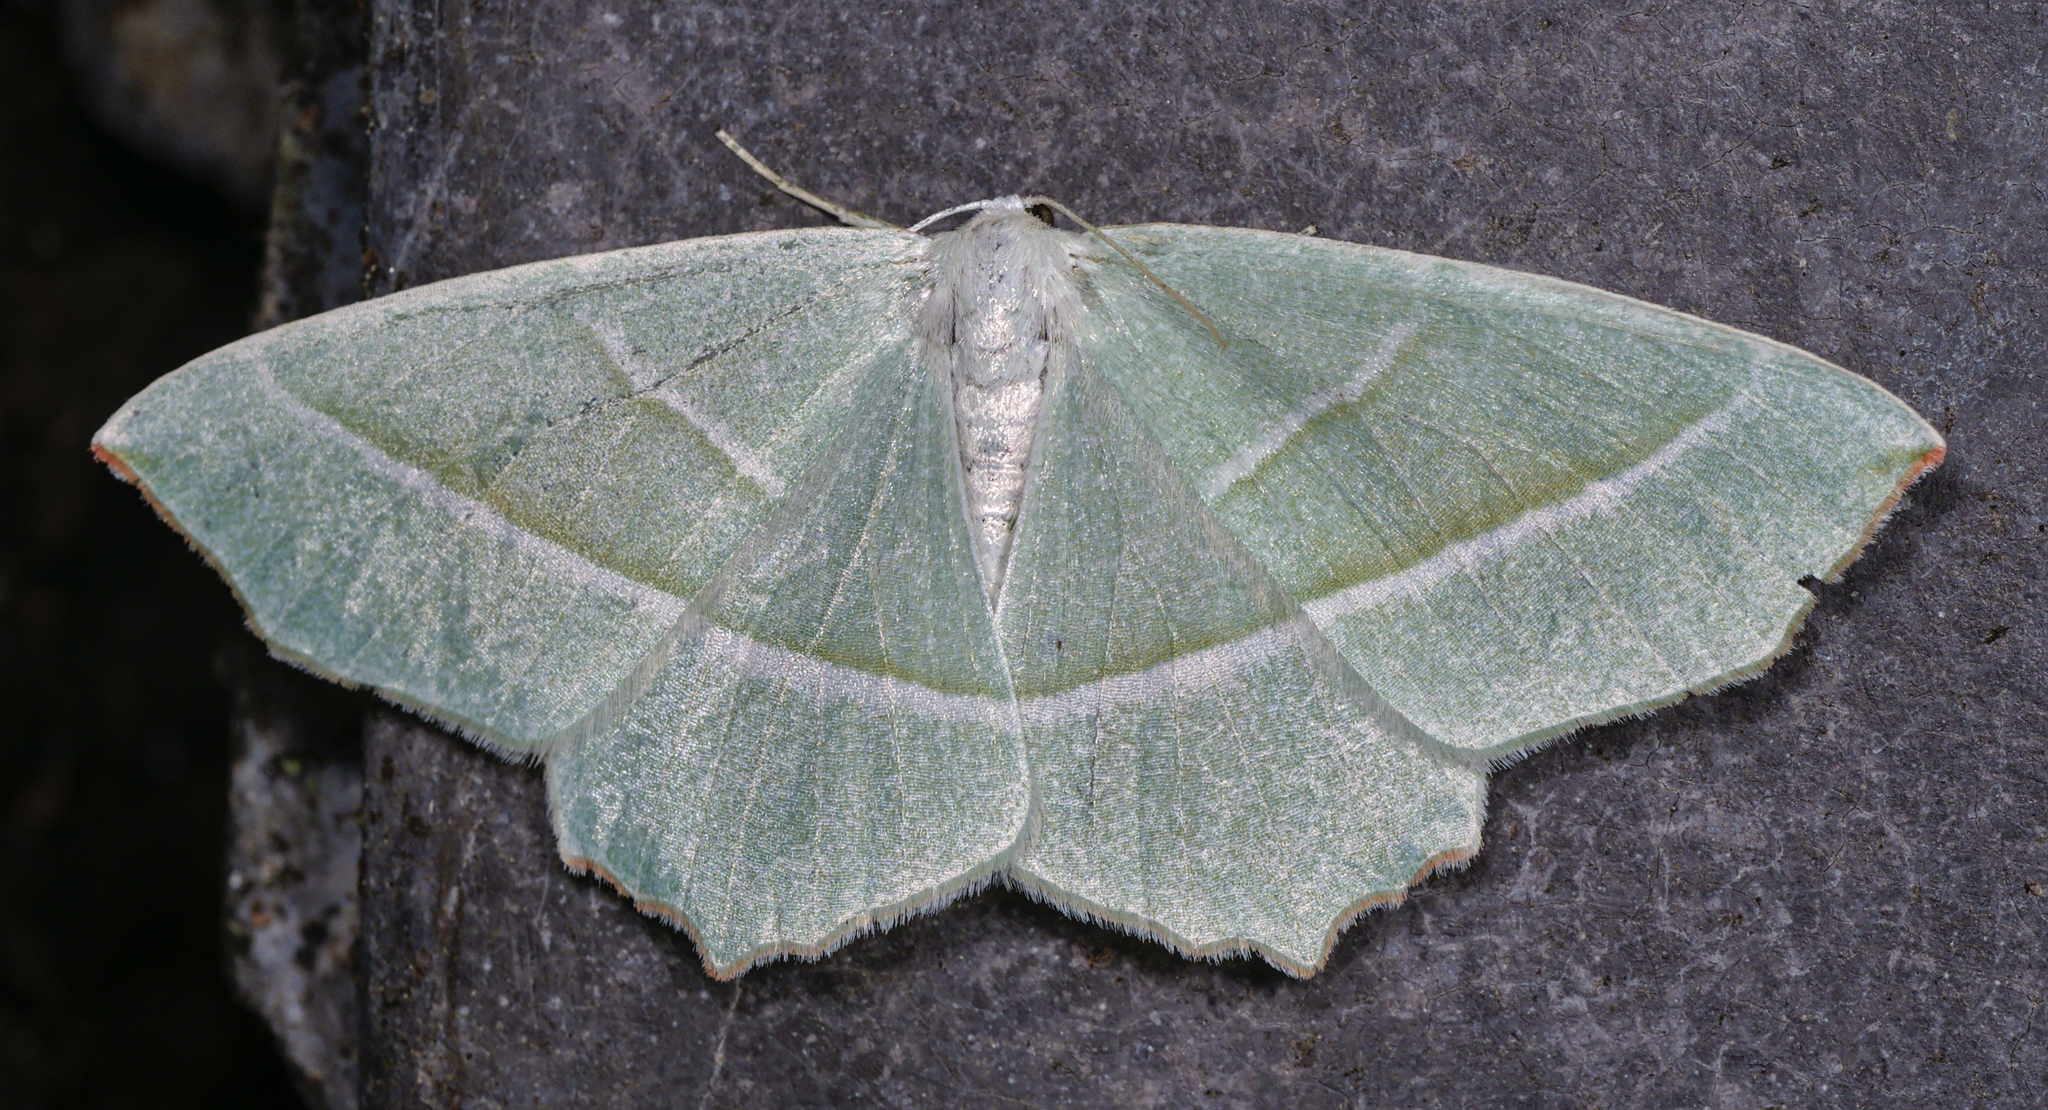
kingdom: Animalia
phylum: Arthropoda
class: Insecta
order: Lepidoptera
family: Geometridae
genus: Campaea
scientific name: Campaea margaritaria
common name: Light emerald
